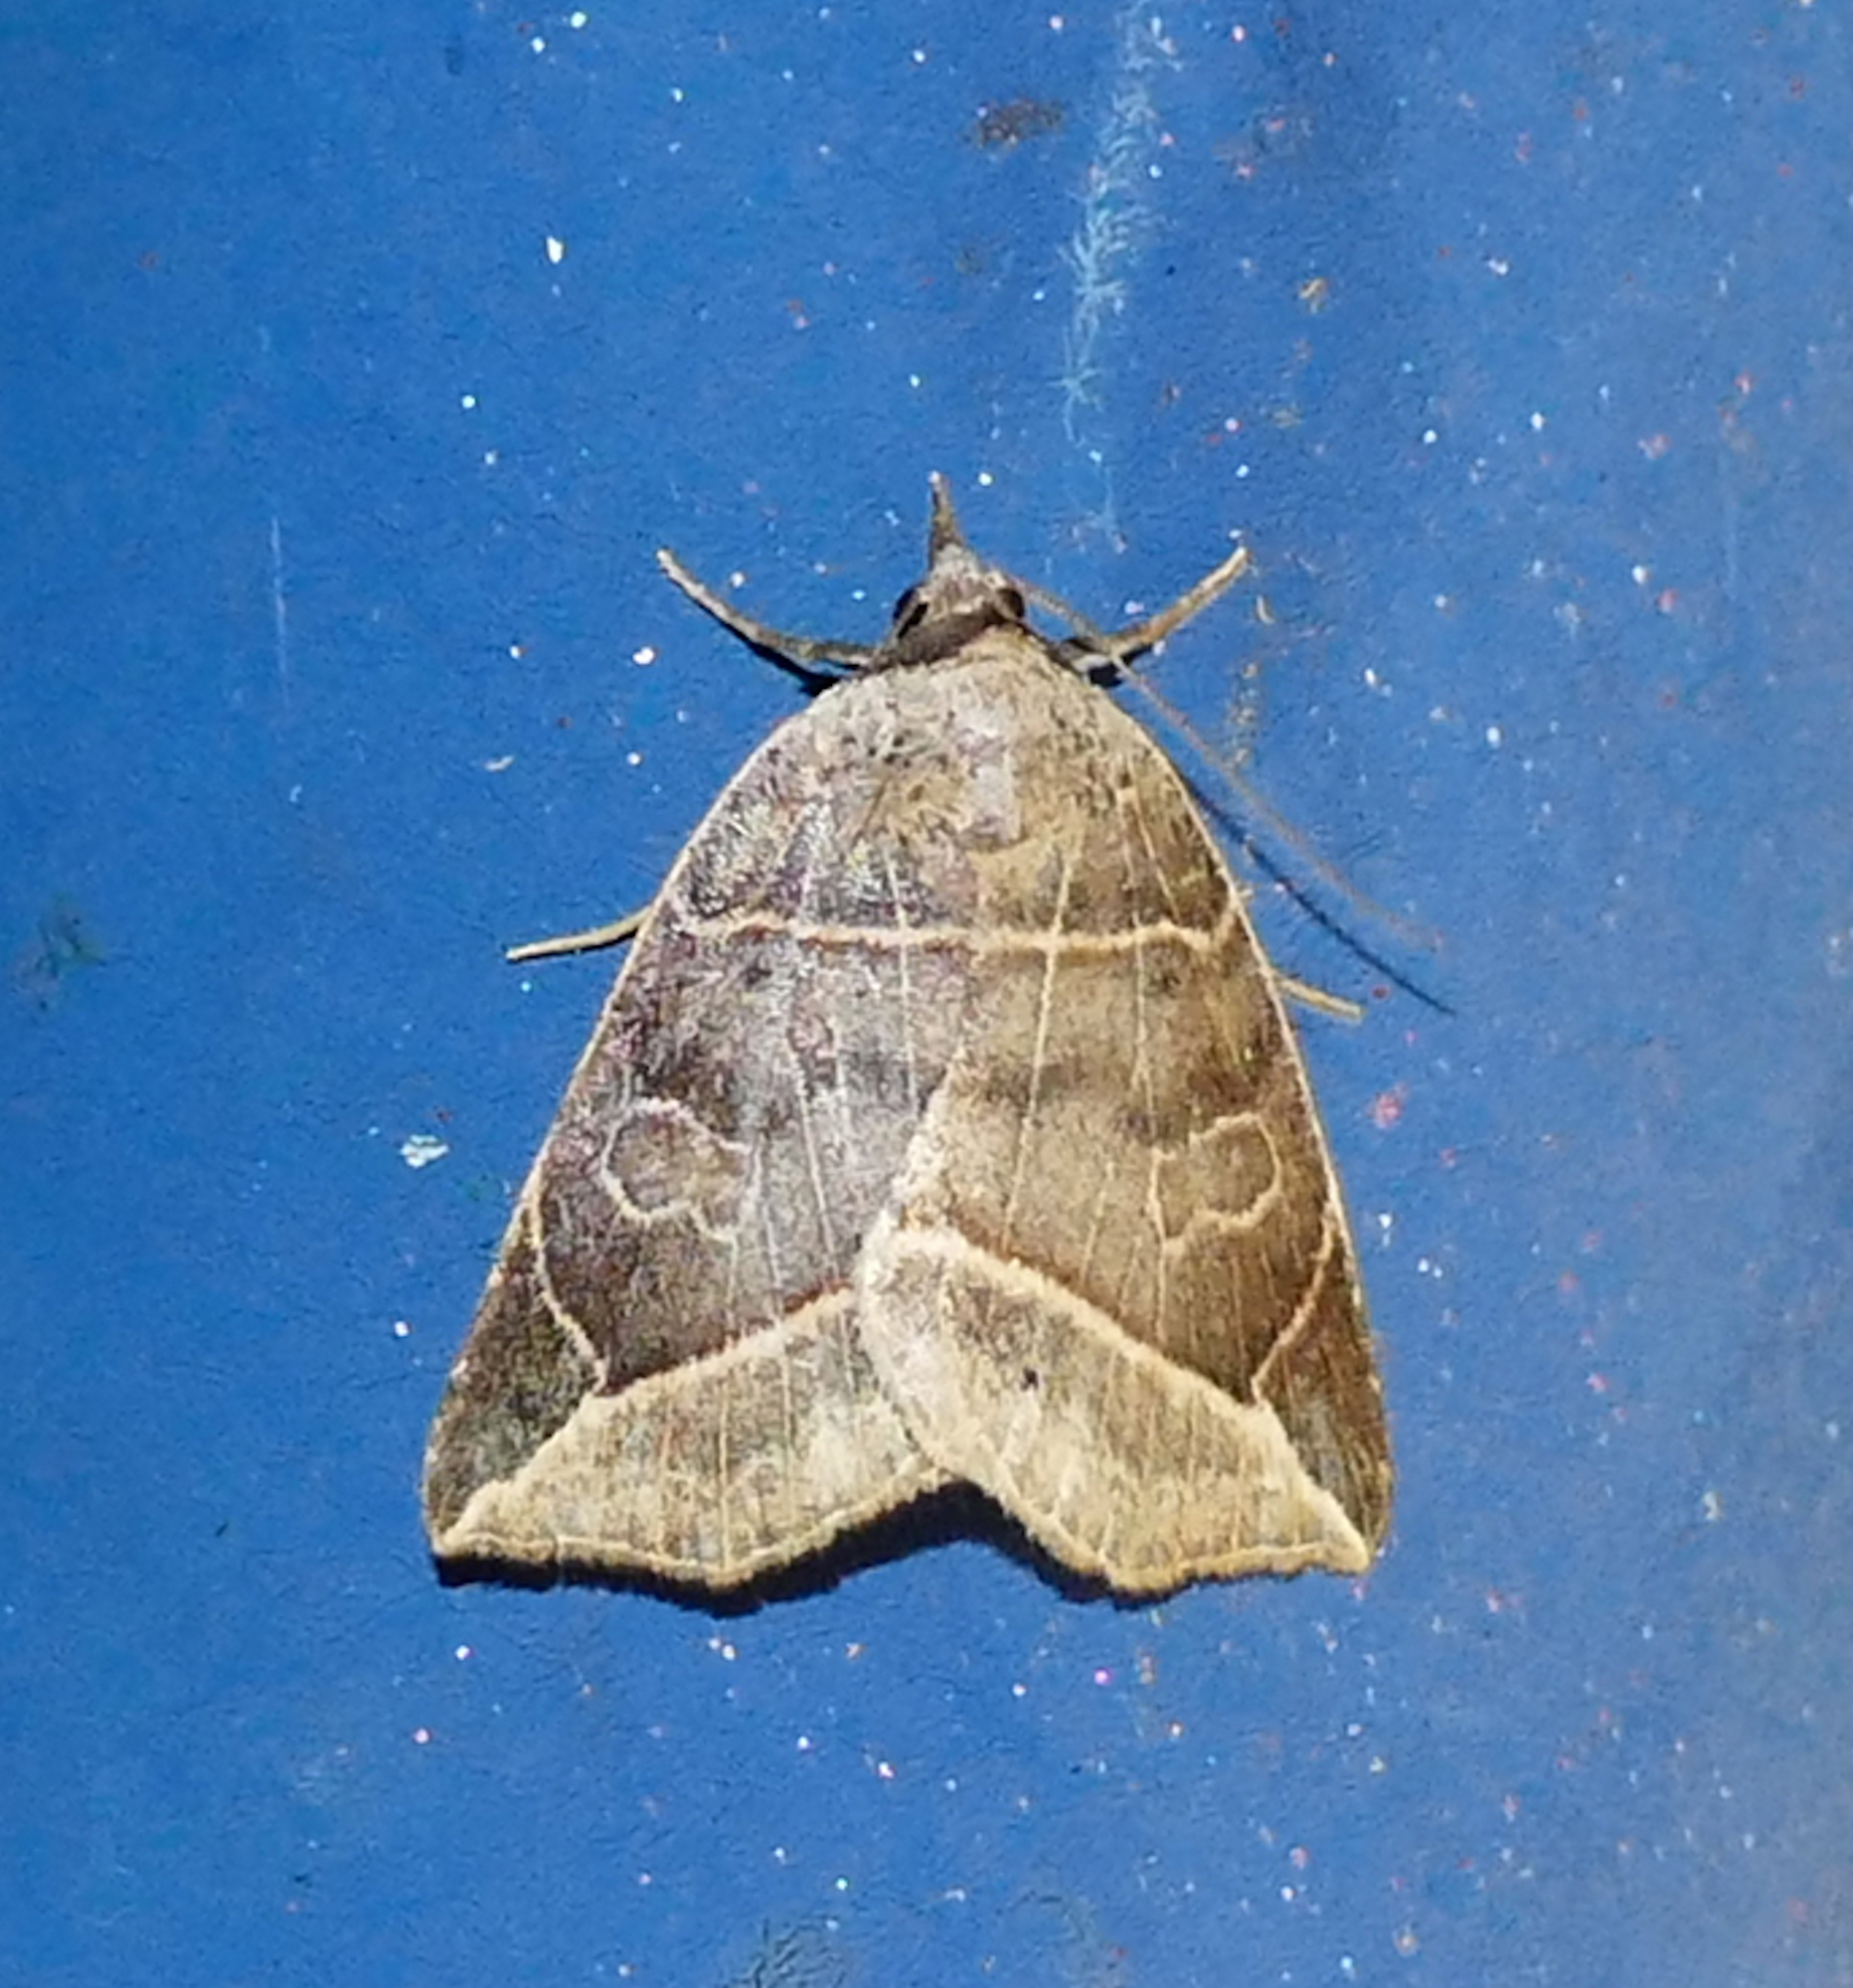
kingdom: Animalia
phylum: Arthropoda
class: Insecta
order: Lepidoptera
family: Erebidae
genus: Isogona
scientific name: Isogona tenuis
